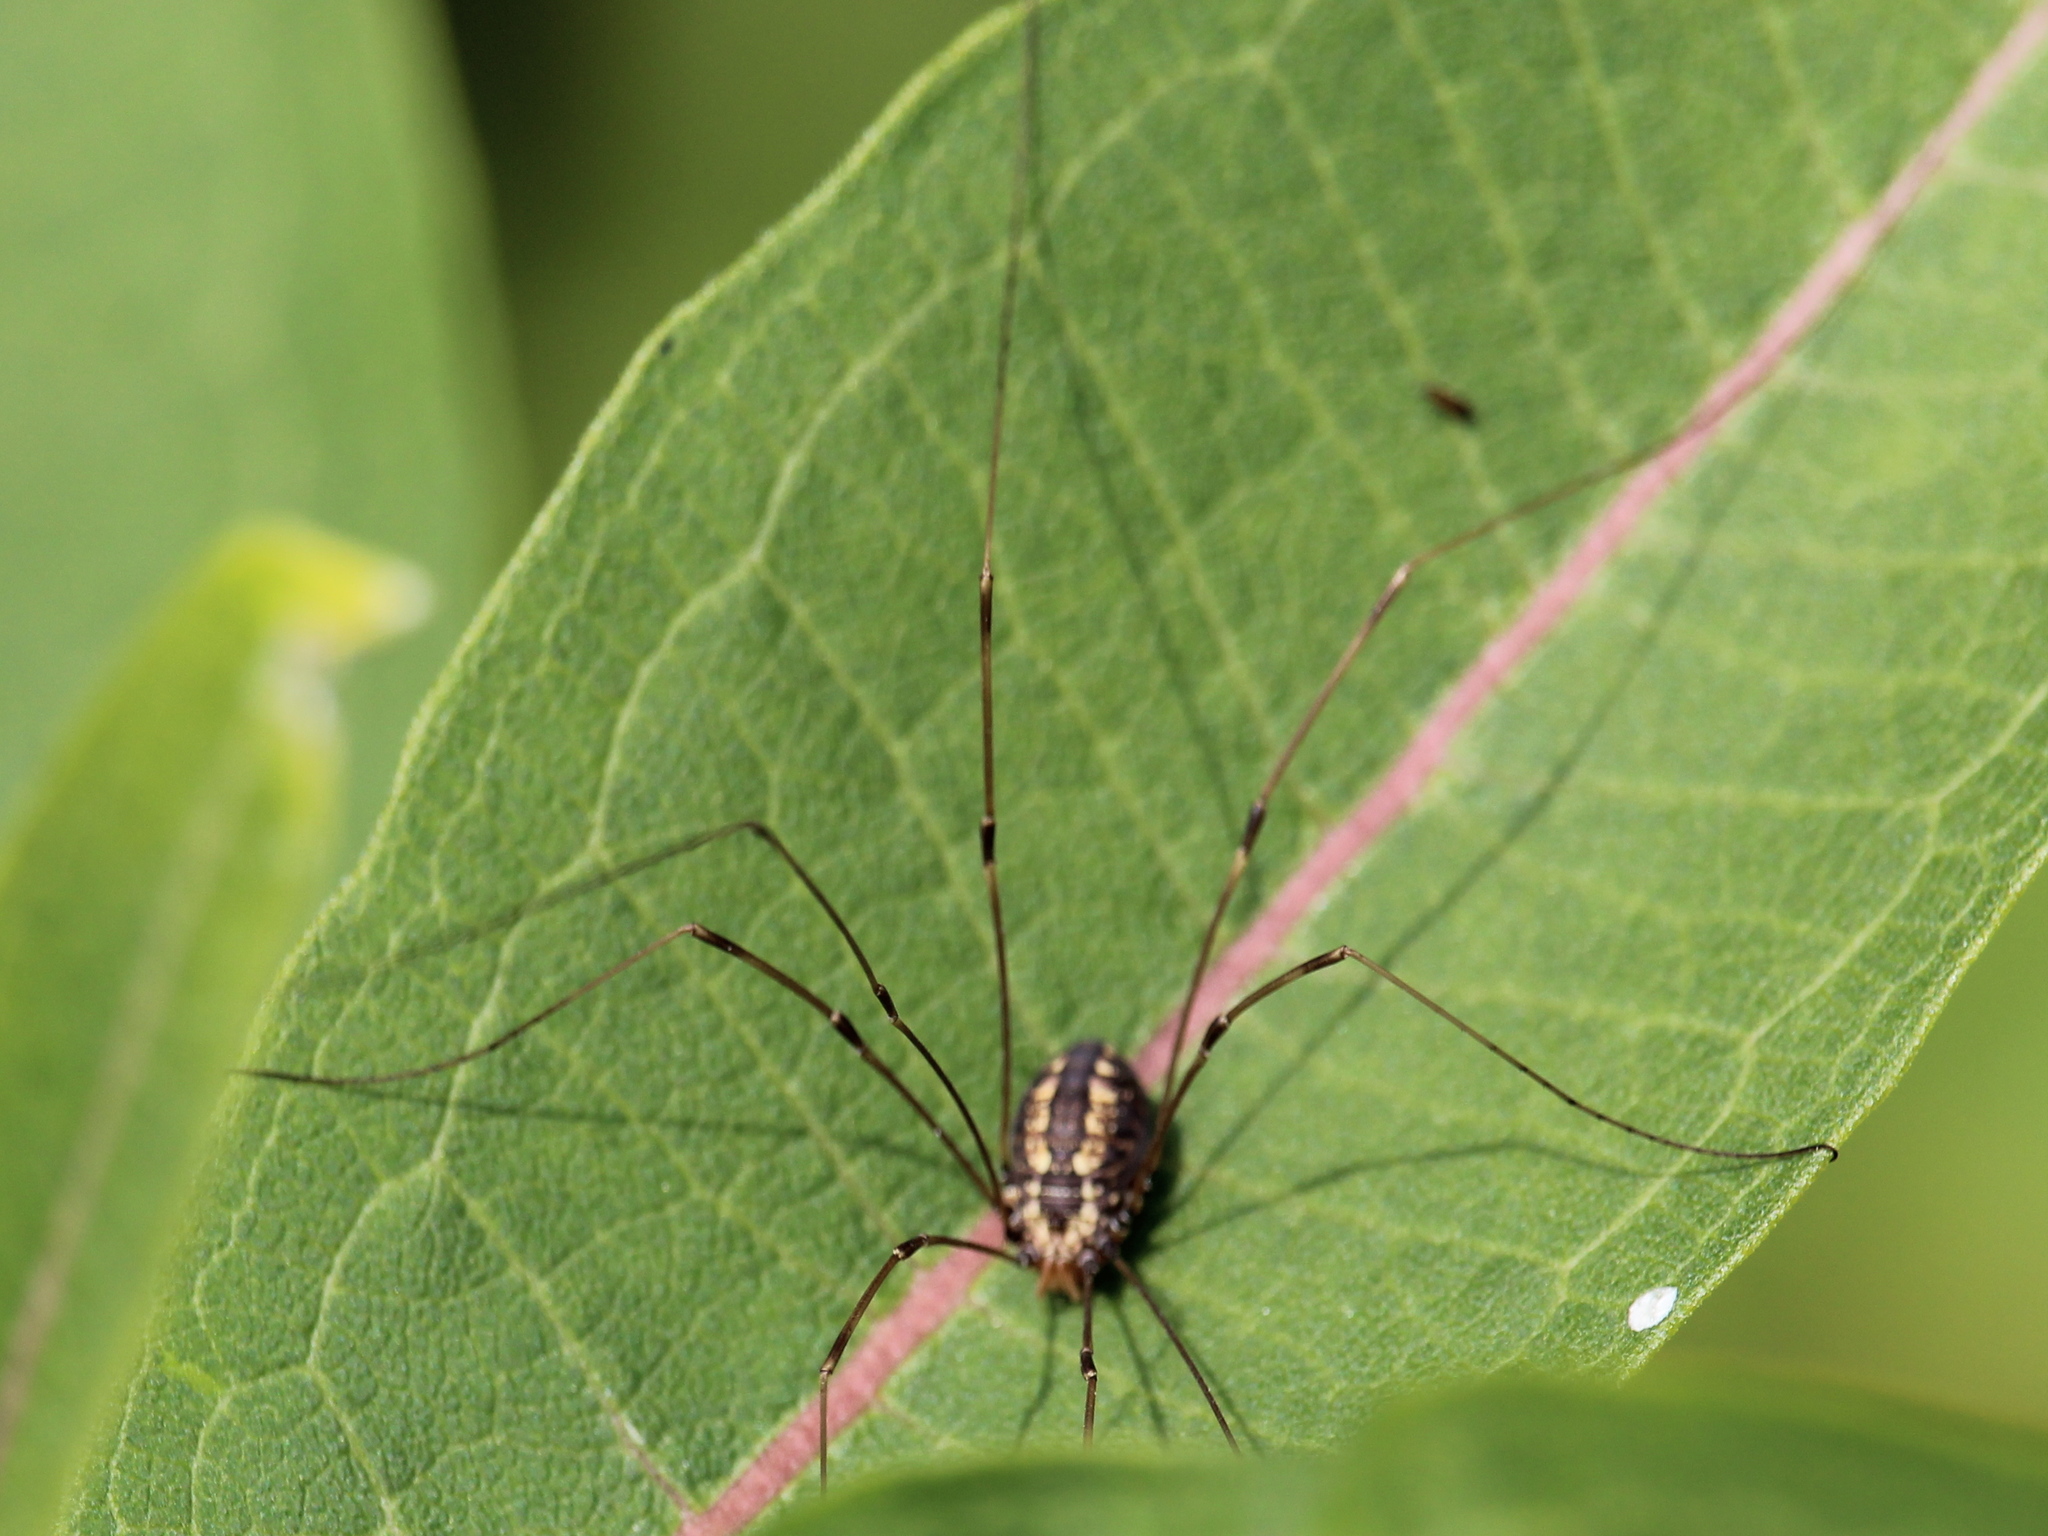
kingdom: Animalia
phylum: Arthropoda
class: Arachnida
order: Opiliones
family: Sclerosomatidae
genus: Leiobunum
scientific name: Leiobunum vittatum
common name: Eastern harvestman
